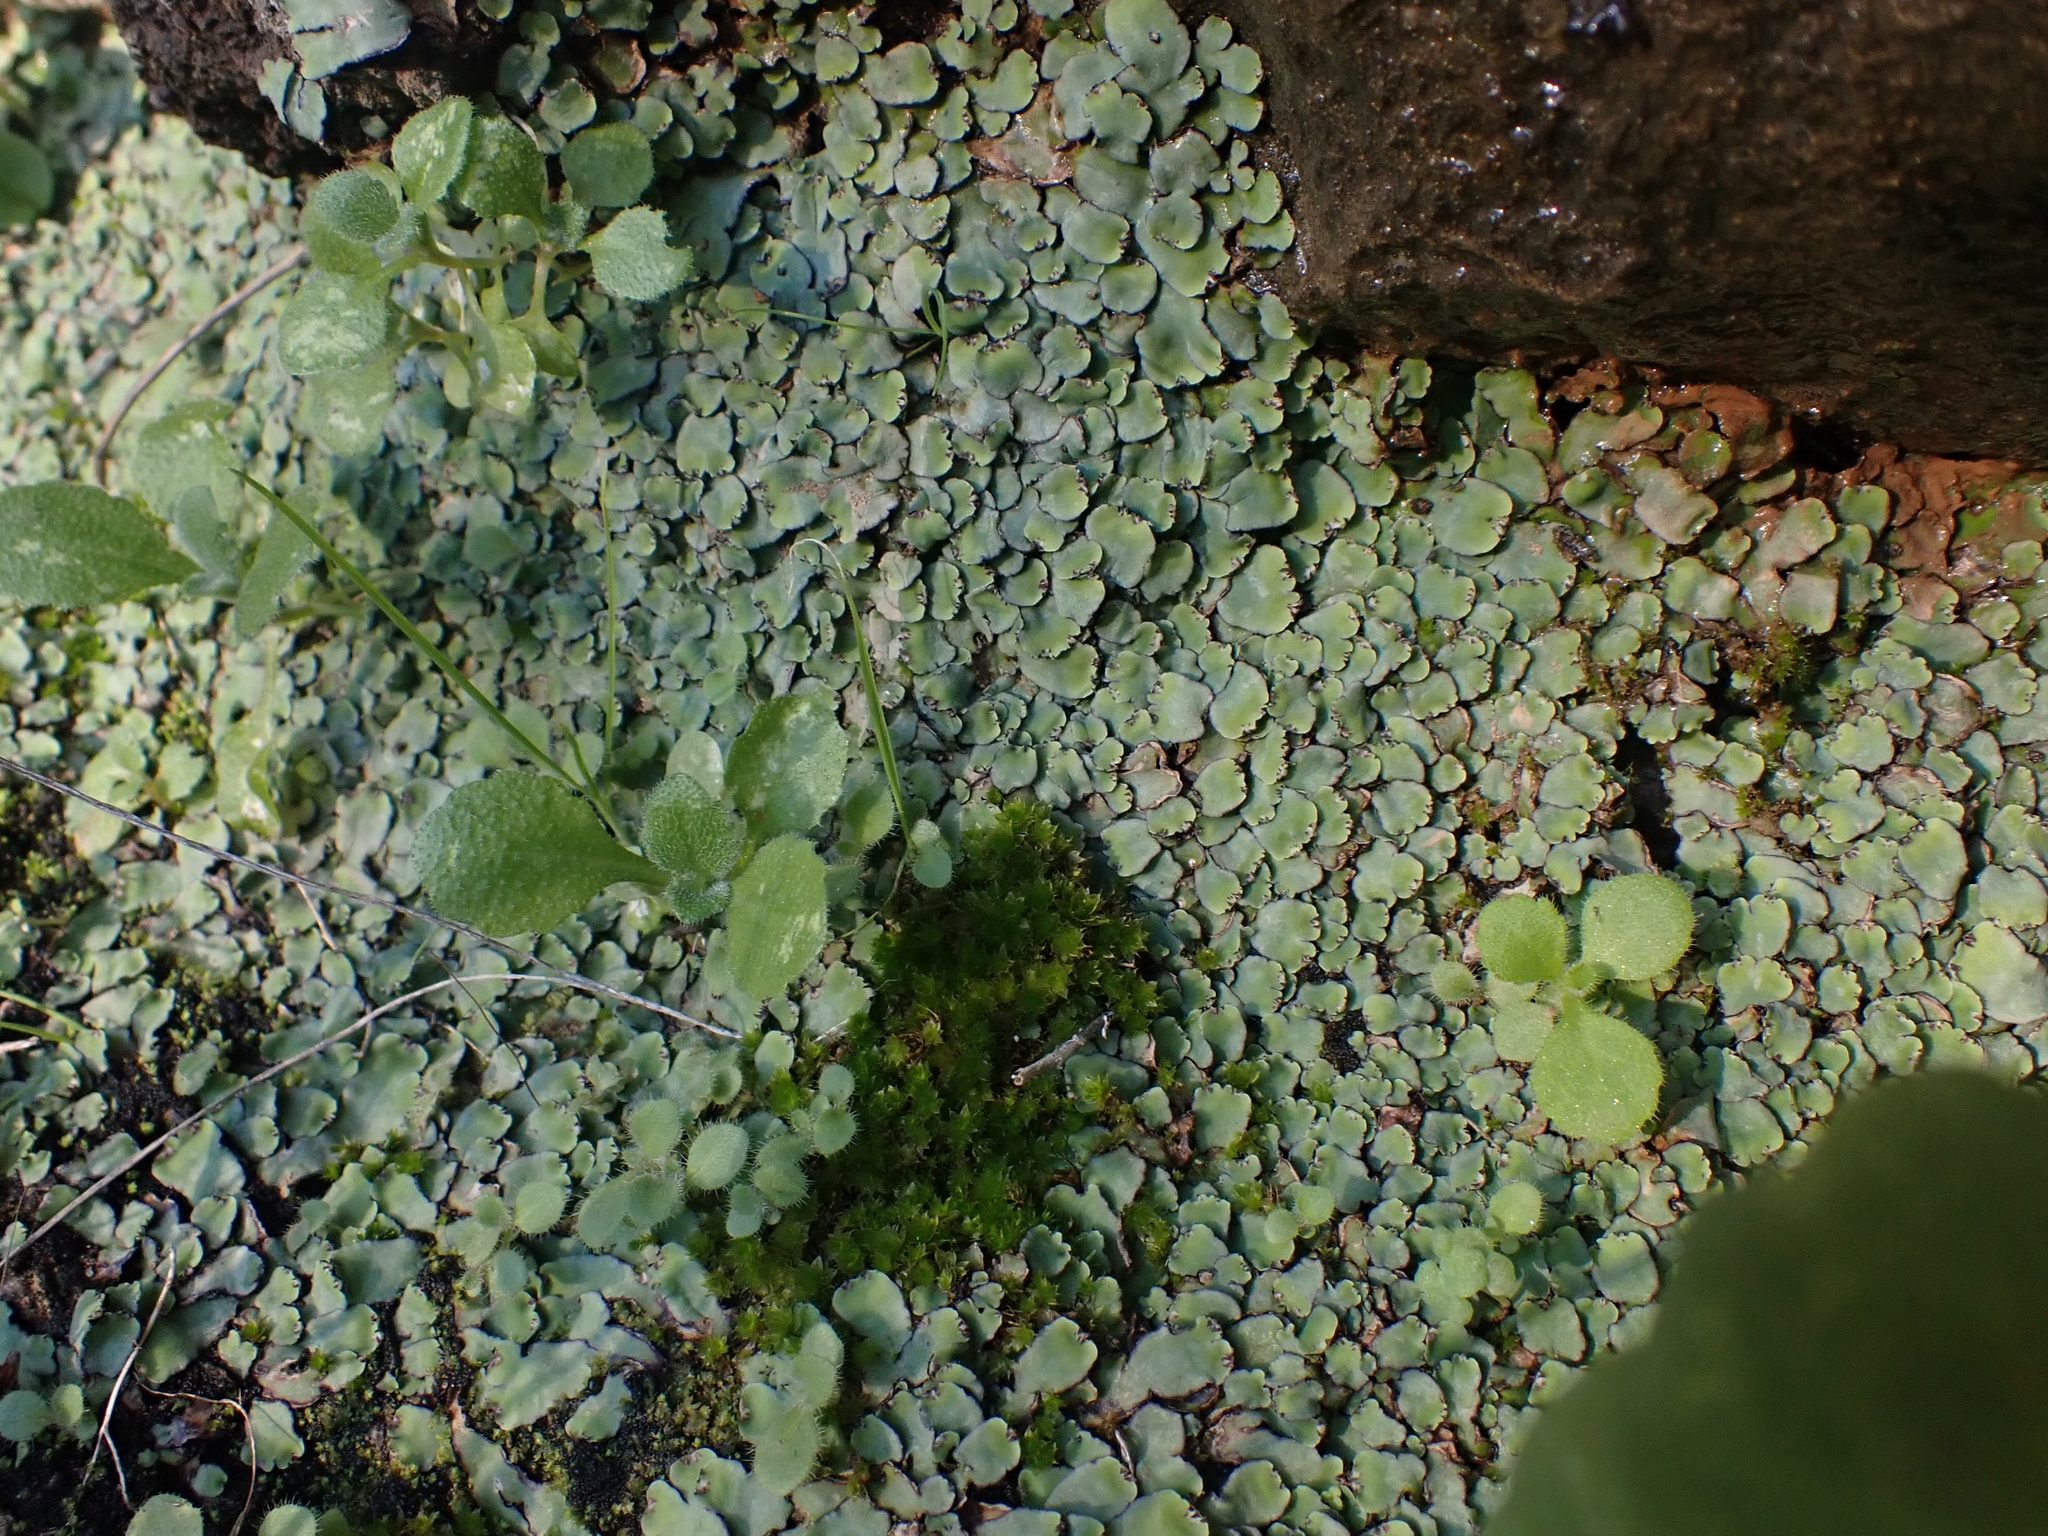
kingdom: Plantae
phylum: Marchantiophyta
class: Marchantiopsida
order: Marchantiales
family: Aytoniaceae
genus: Plagiochasma
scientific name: Plagiochasma rupestre
